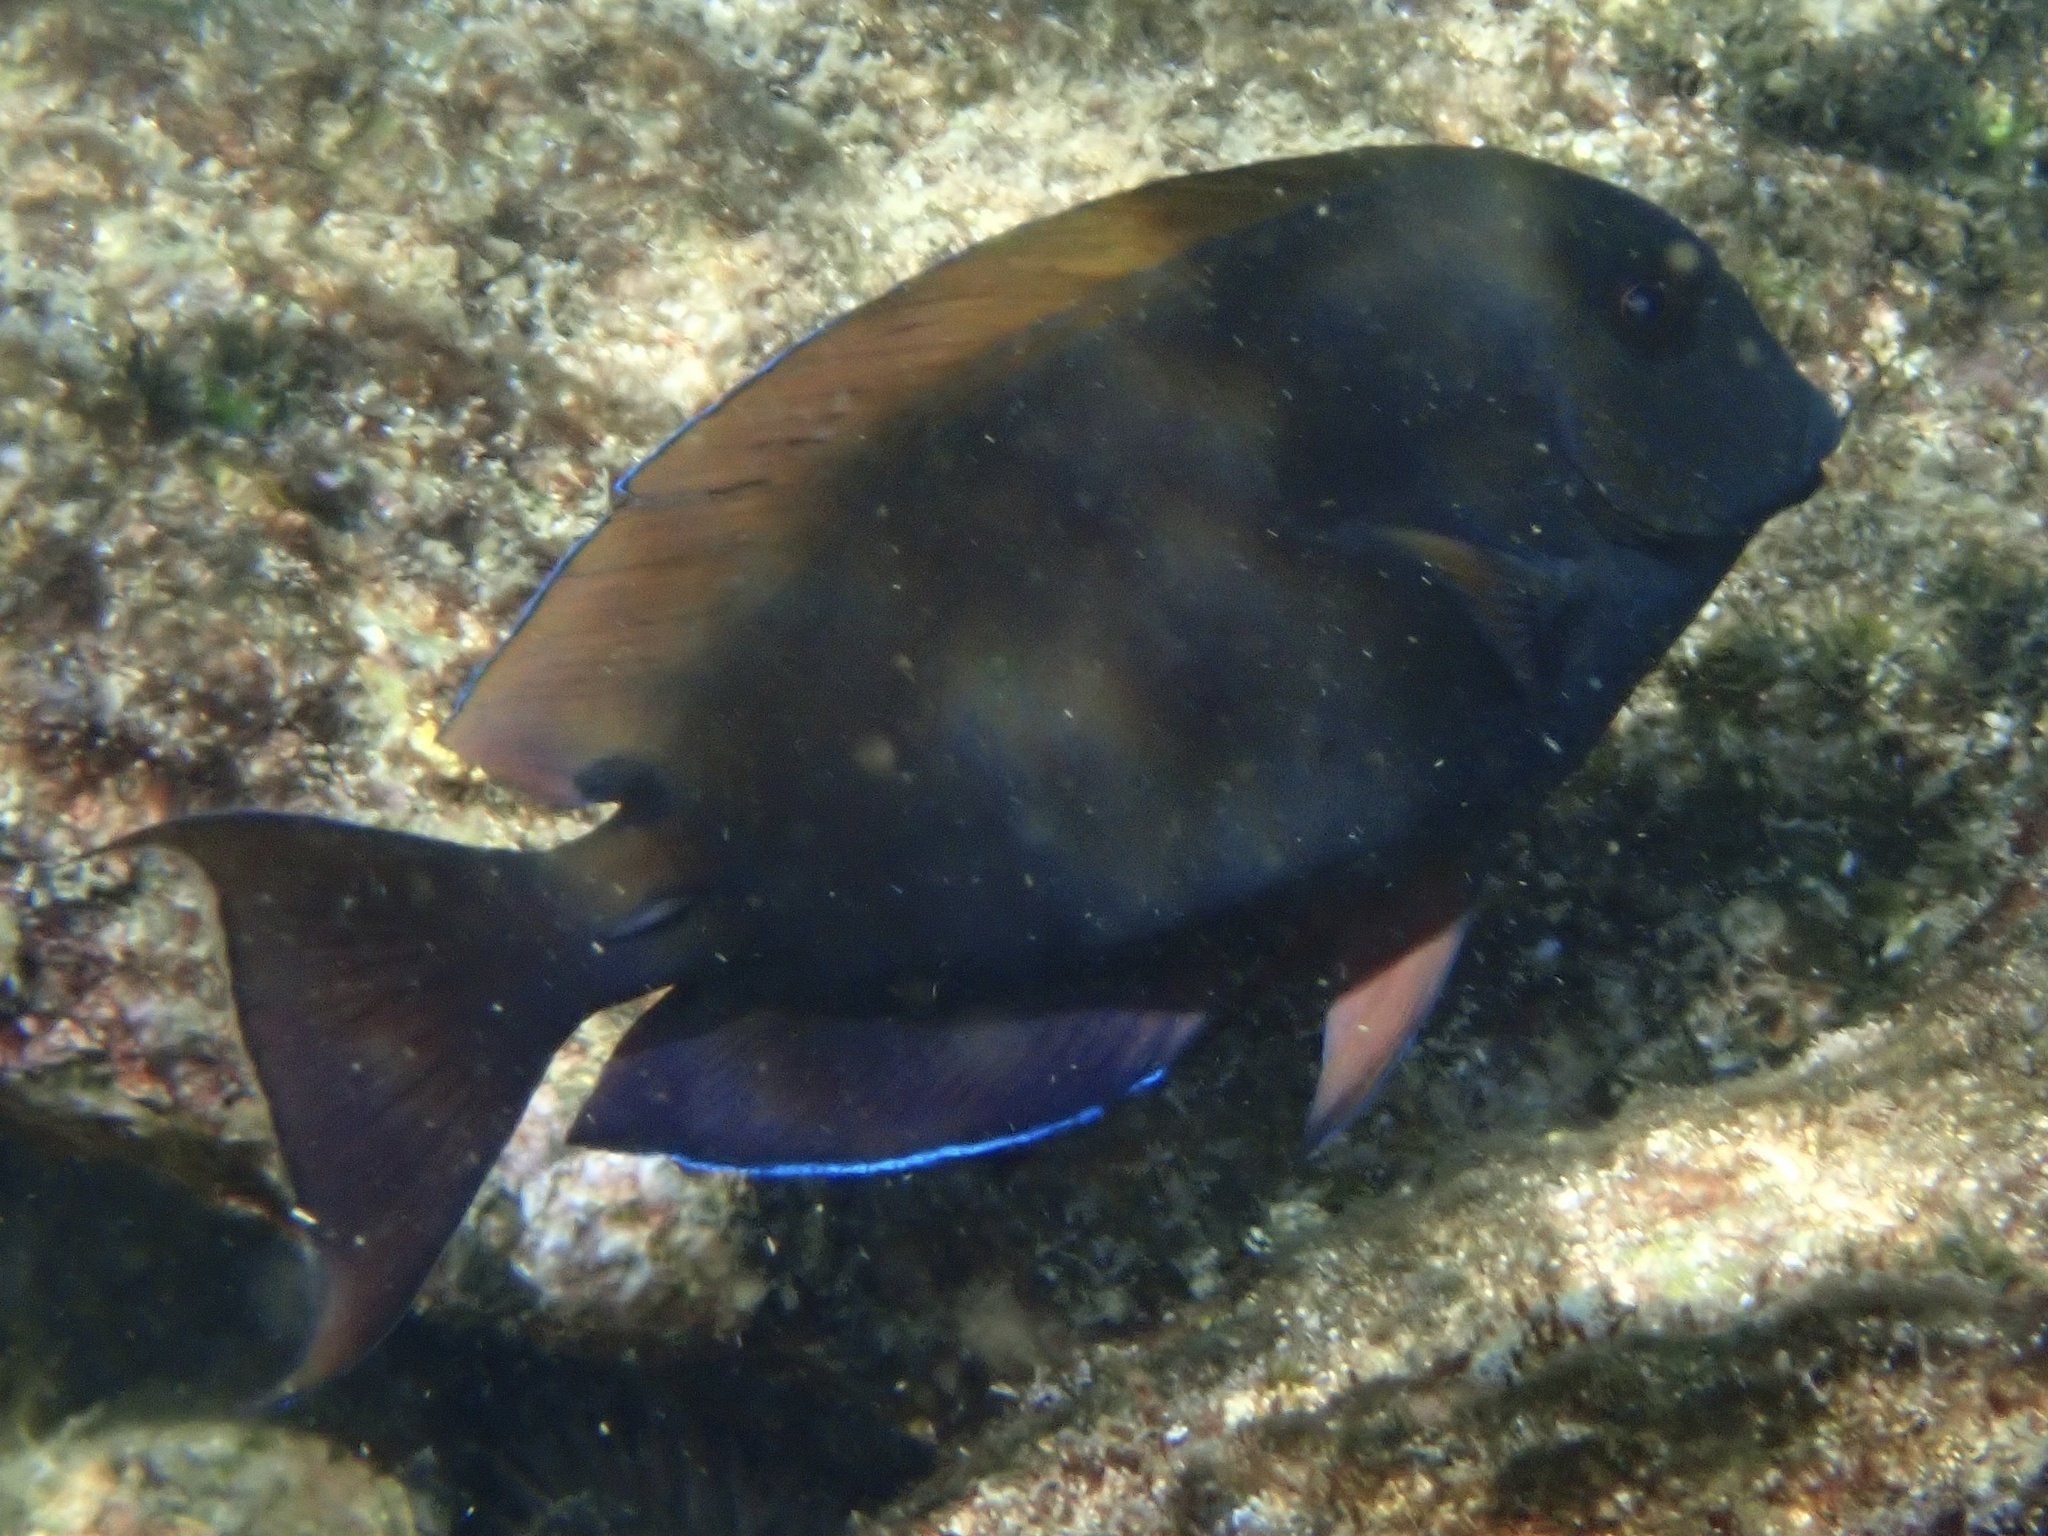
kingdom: Animalia
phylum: Chordata
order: Perciformes
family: Acanthuridae
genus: Acanthurus
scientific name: Acanthurus nigrofuscus
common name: Blackspot surgeonfish
